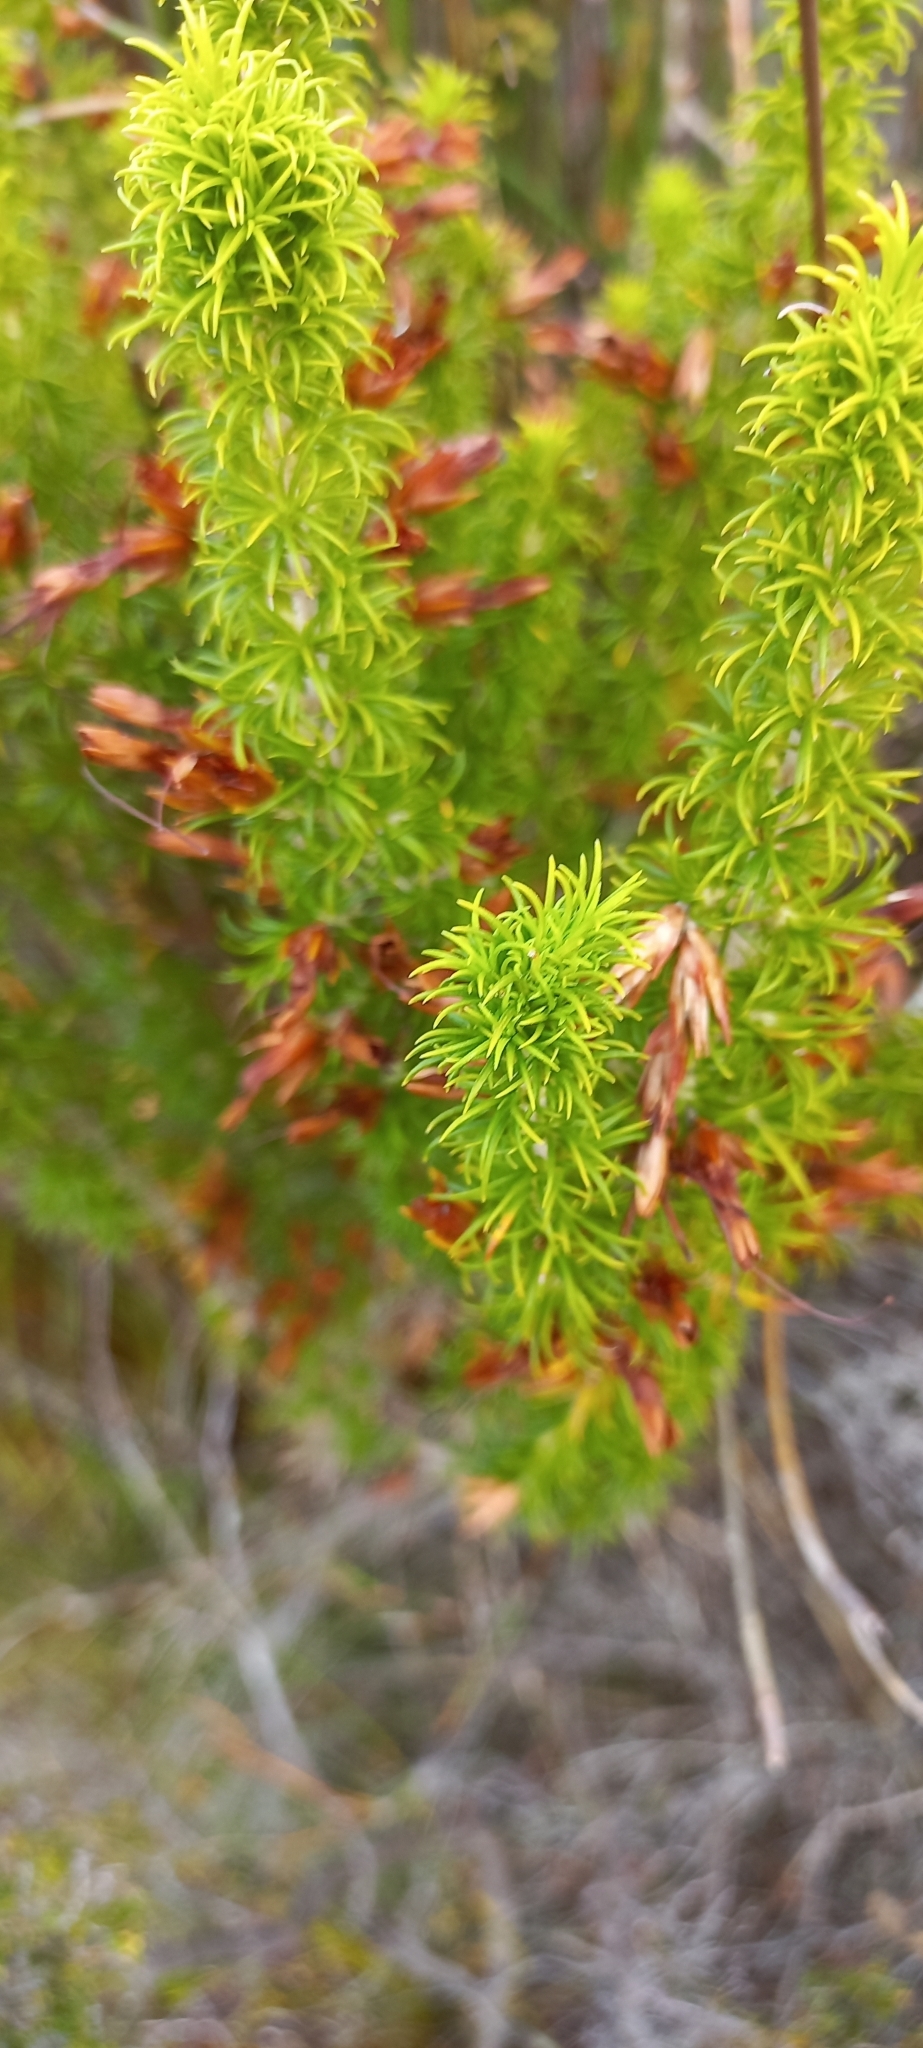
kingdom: Plantae
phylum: Tracheophyta
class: Magnoliopsida
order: Ericales
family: Ericaceae
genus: Erica
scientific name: Erica coccinea
